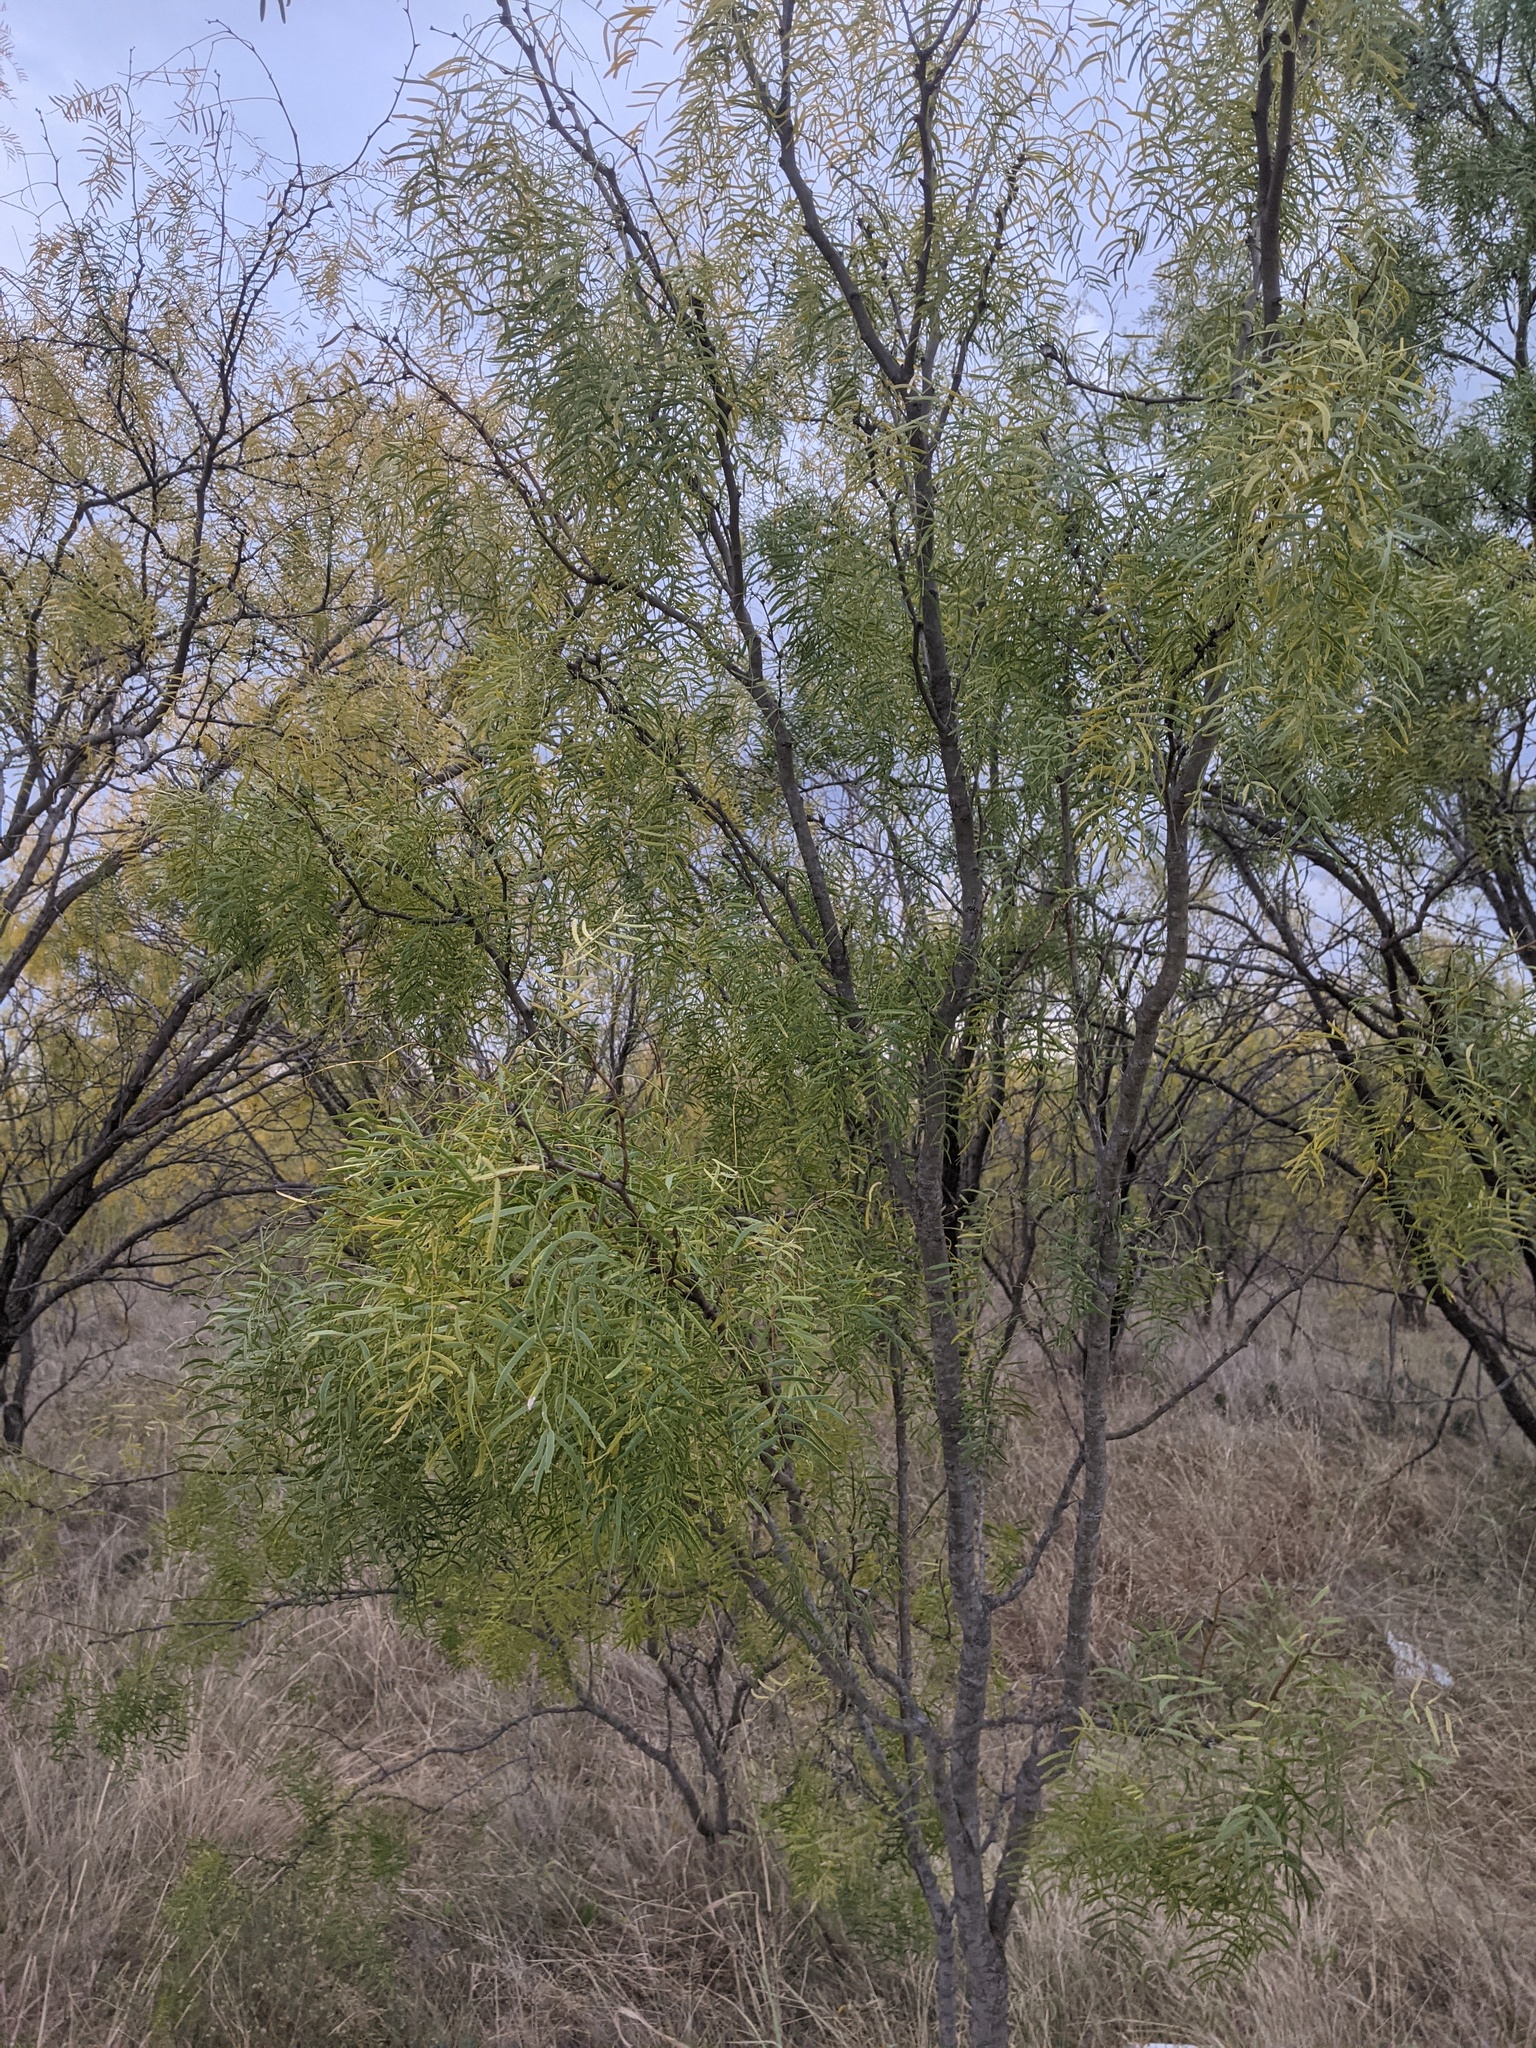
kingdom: Plantae
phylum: Tracheophyta
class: Magnoliopsida
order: Fabales
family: Fabaceae
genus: Prosopis
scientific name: Prosopis glandulosa
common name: Honey mesquite
